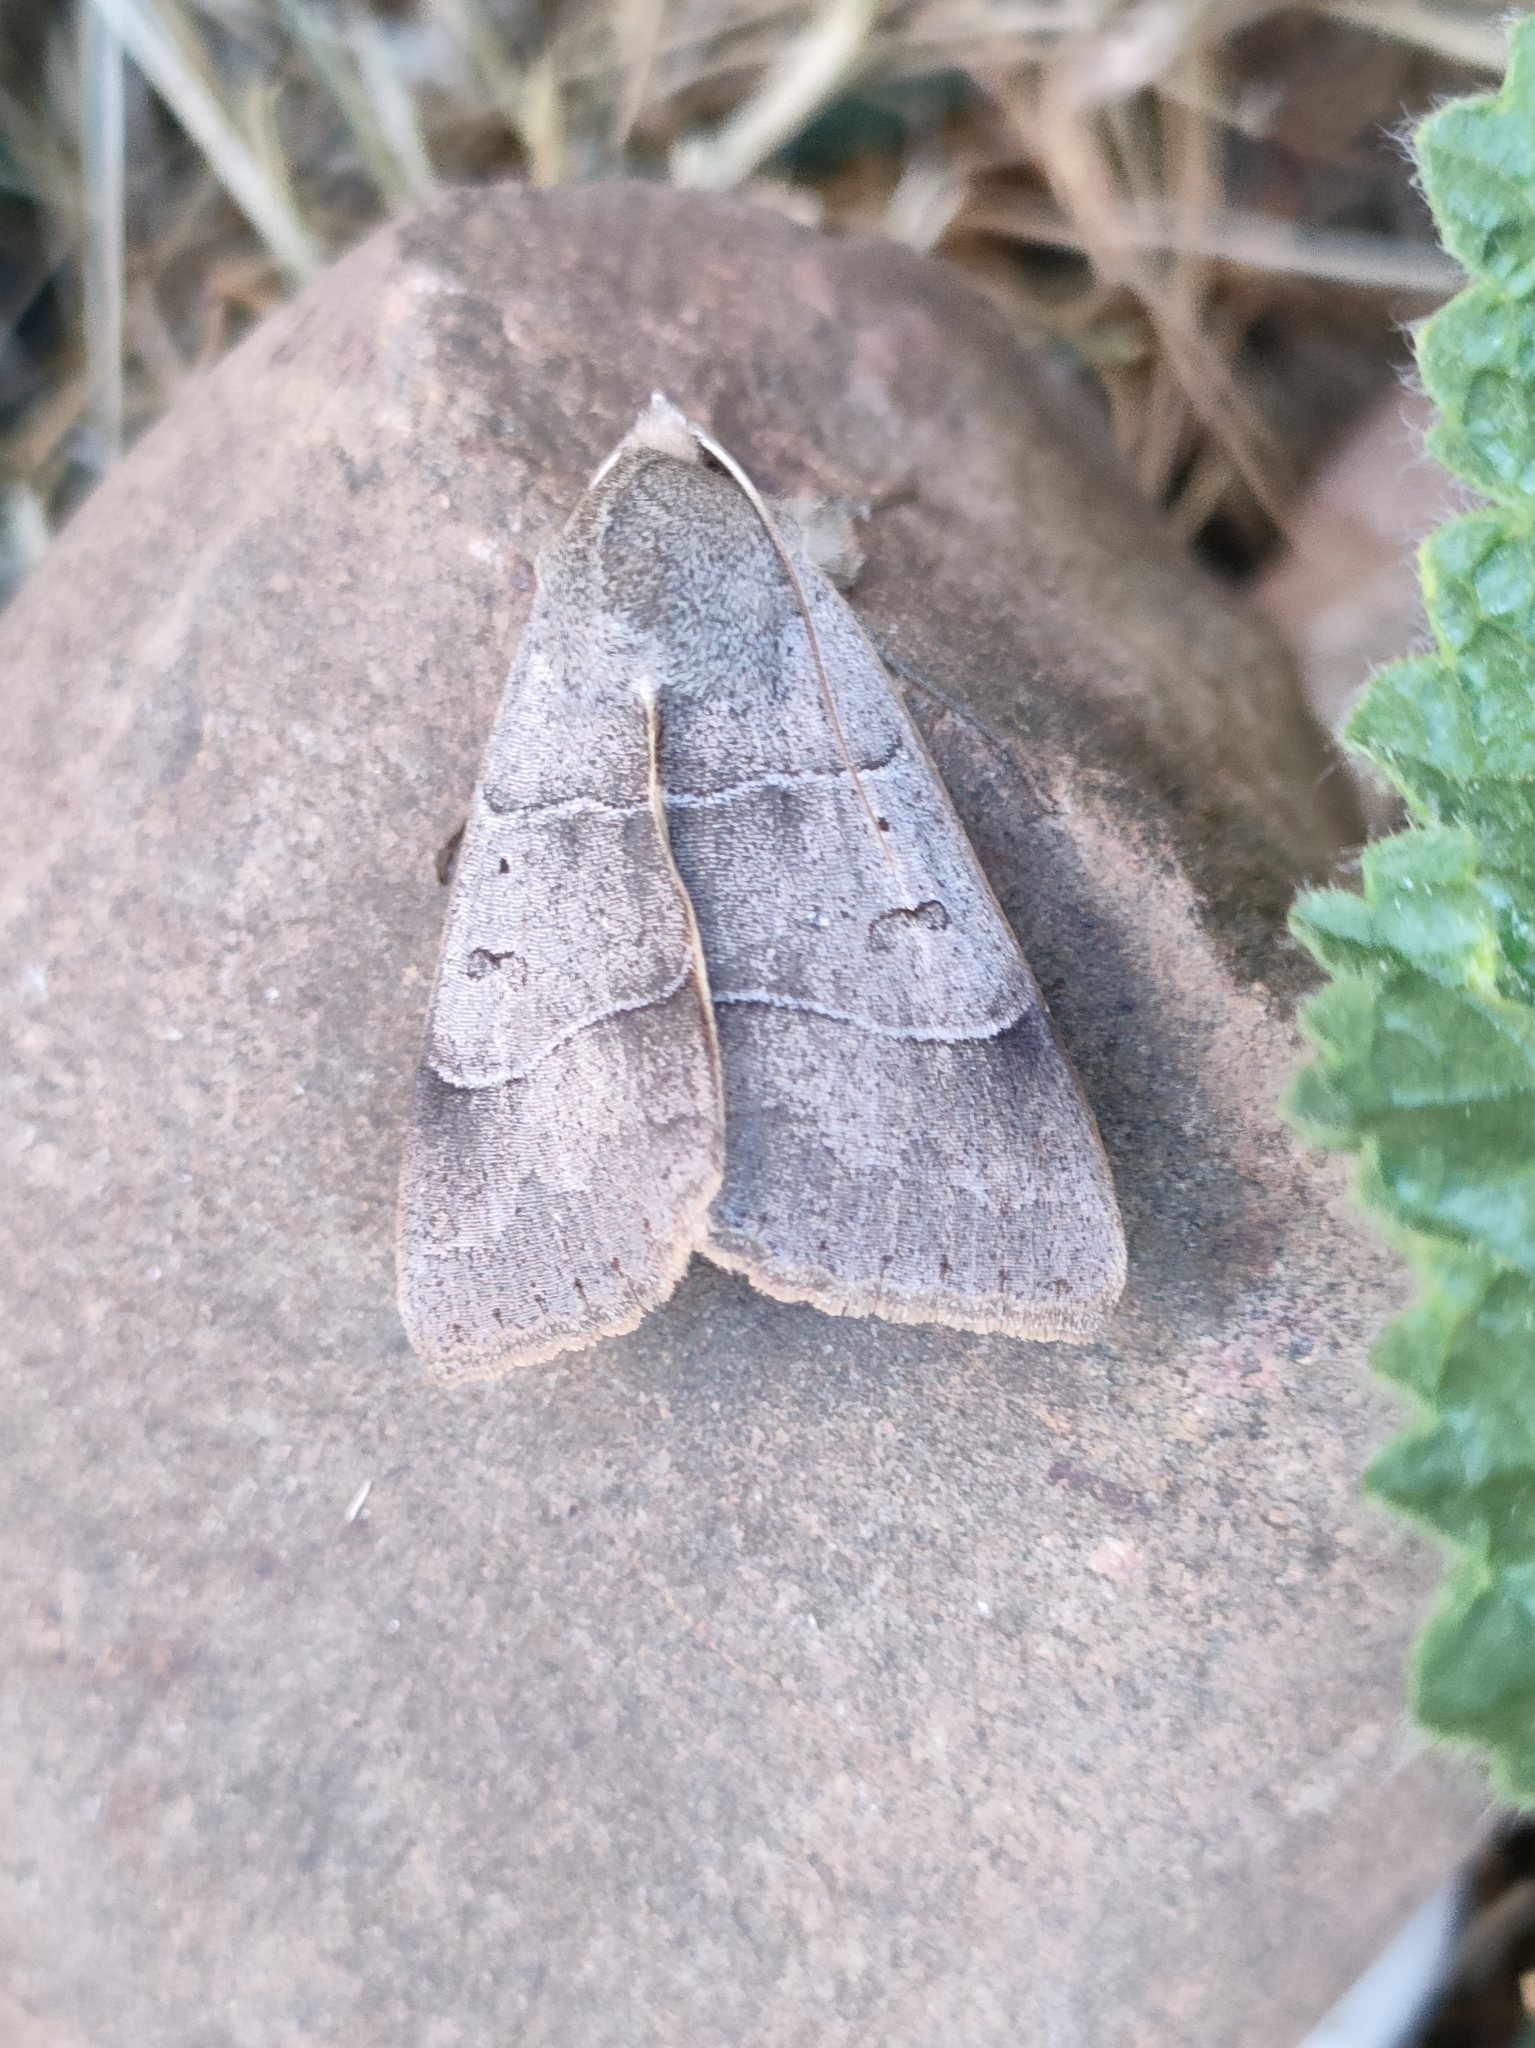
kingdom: Animalia
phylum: Arthropoda
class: Insecta
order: Lepidoptera
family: Erebidae
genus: Minucia
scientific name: Minucia lunaris
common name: Lunar double-stripe
